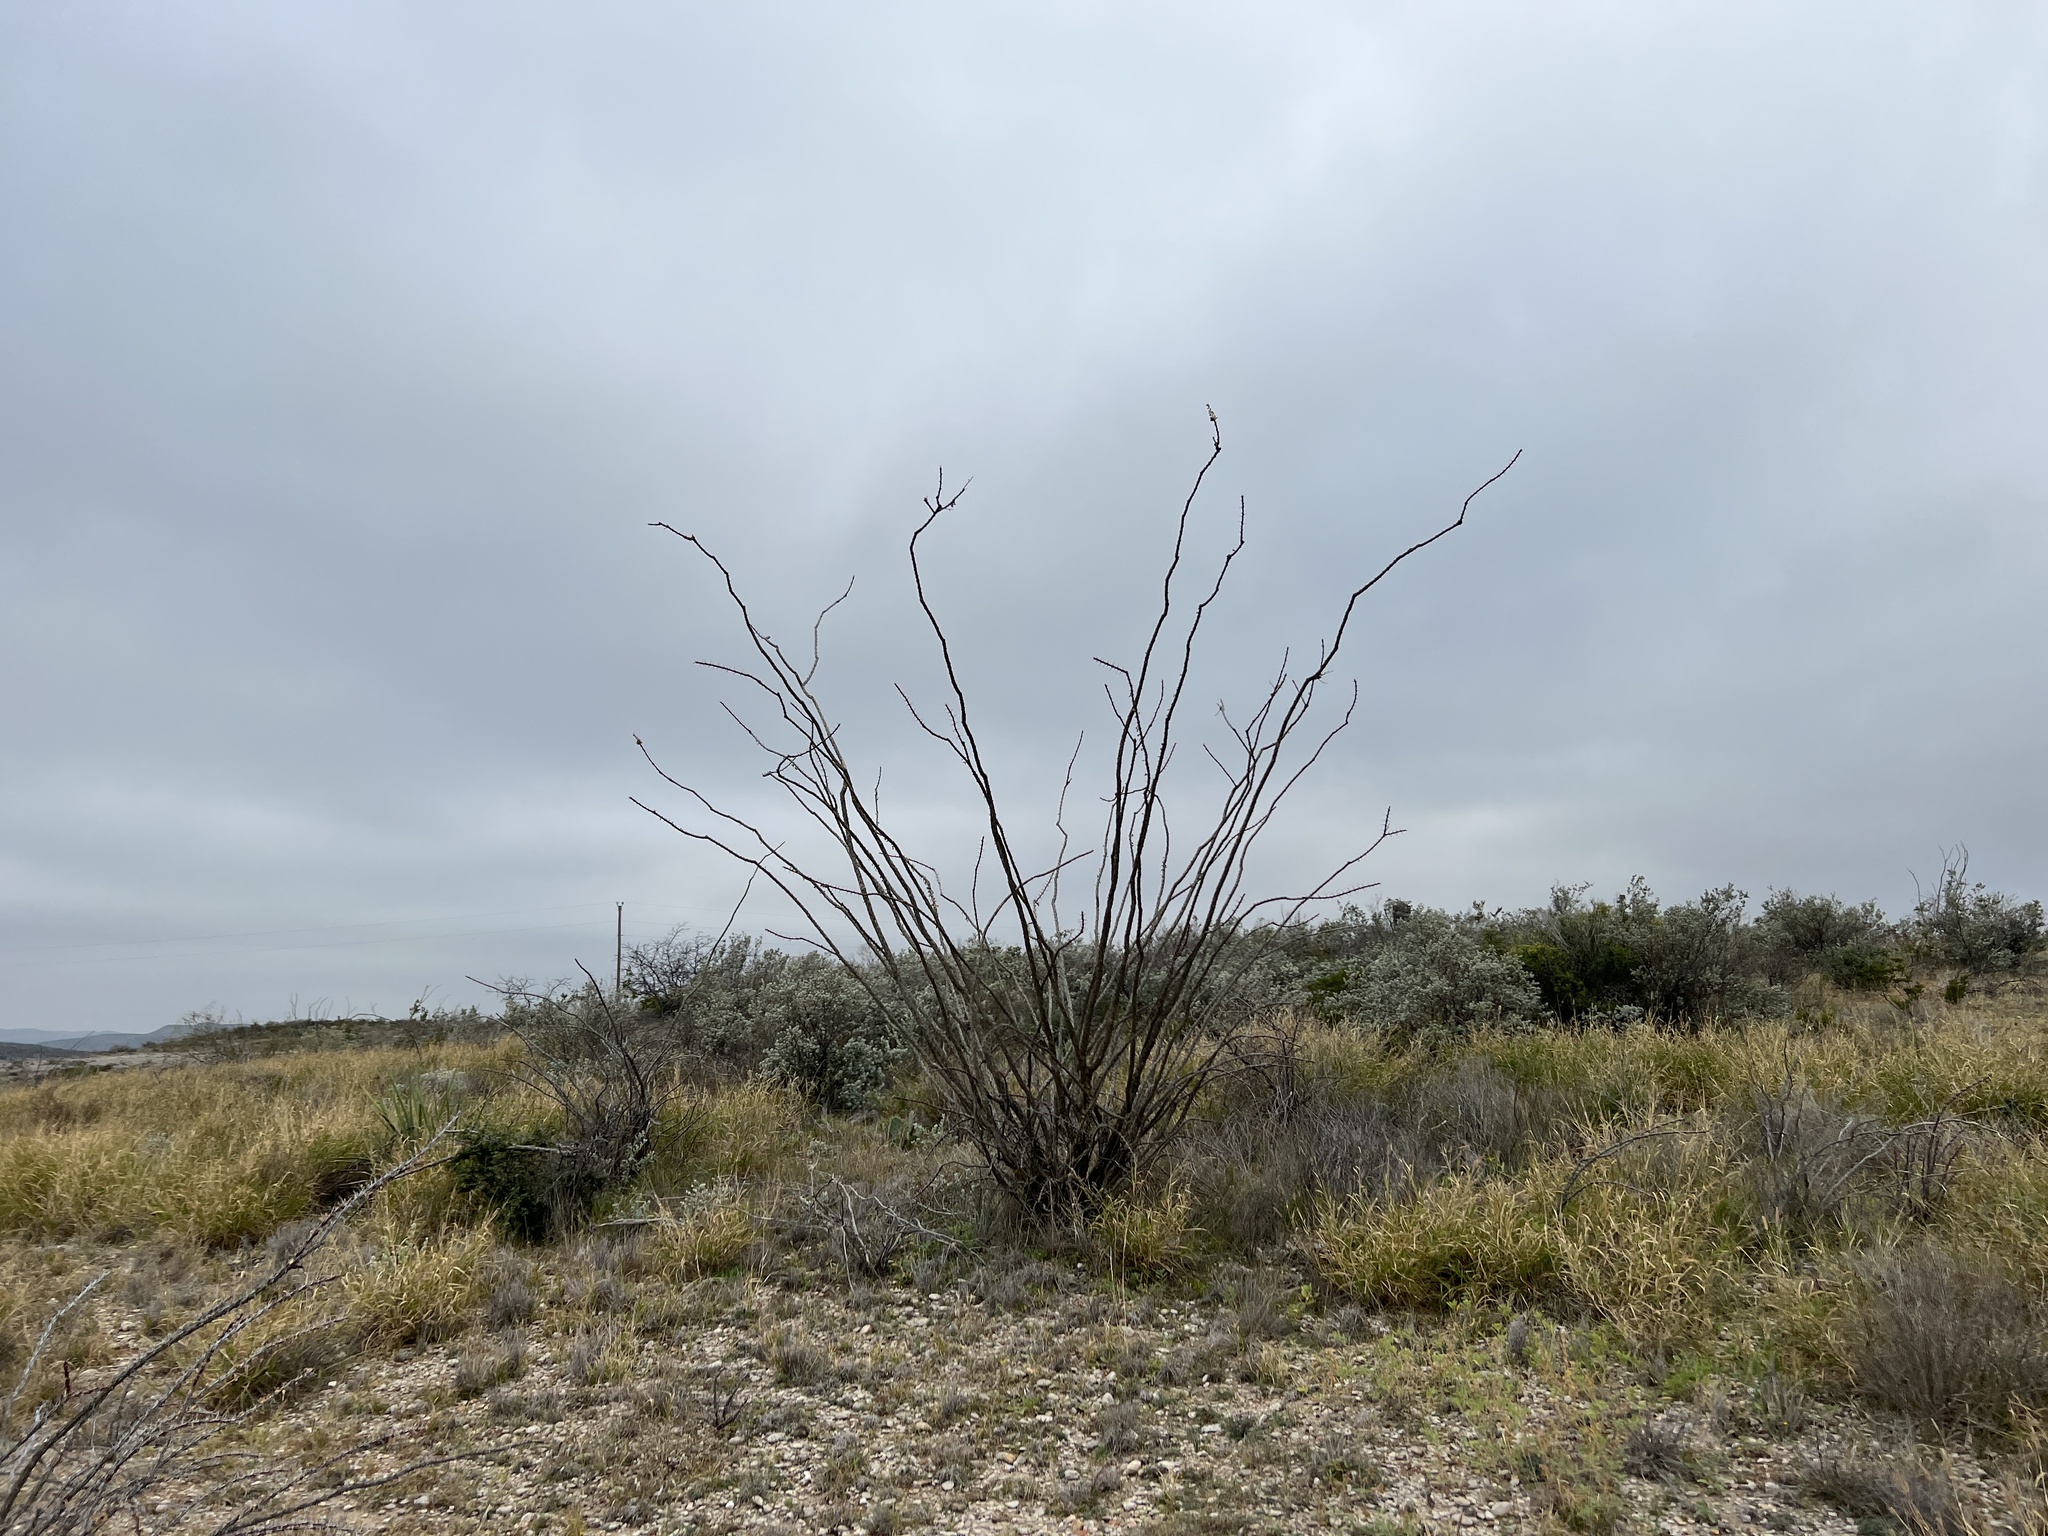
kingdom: Plantae
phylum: Tracheophyta
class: Magnoliopsida
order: Ericales
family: Fouquieriaceae
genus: Fouquieria
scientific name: Fouquieria splendens
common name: Vine-cactus
